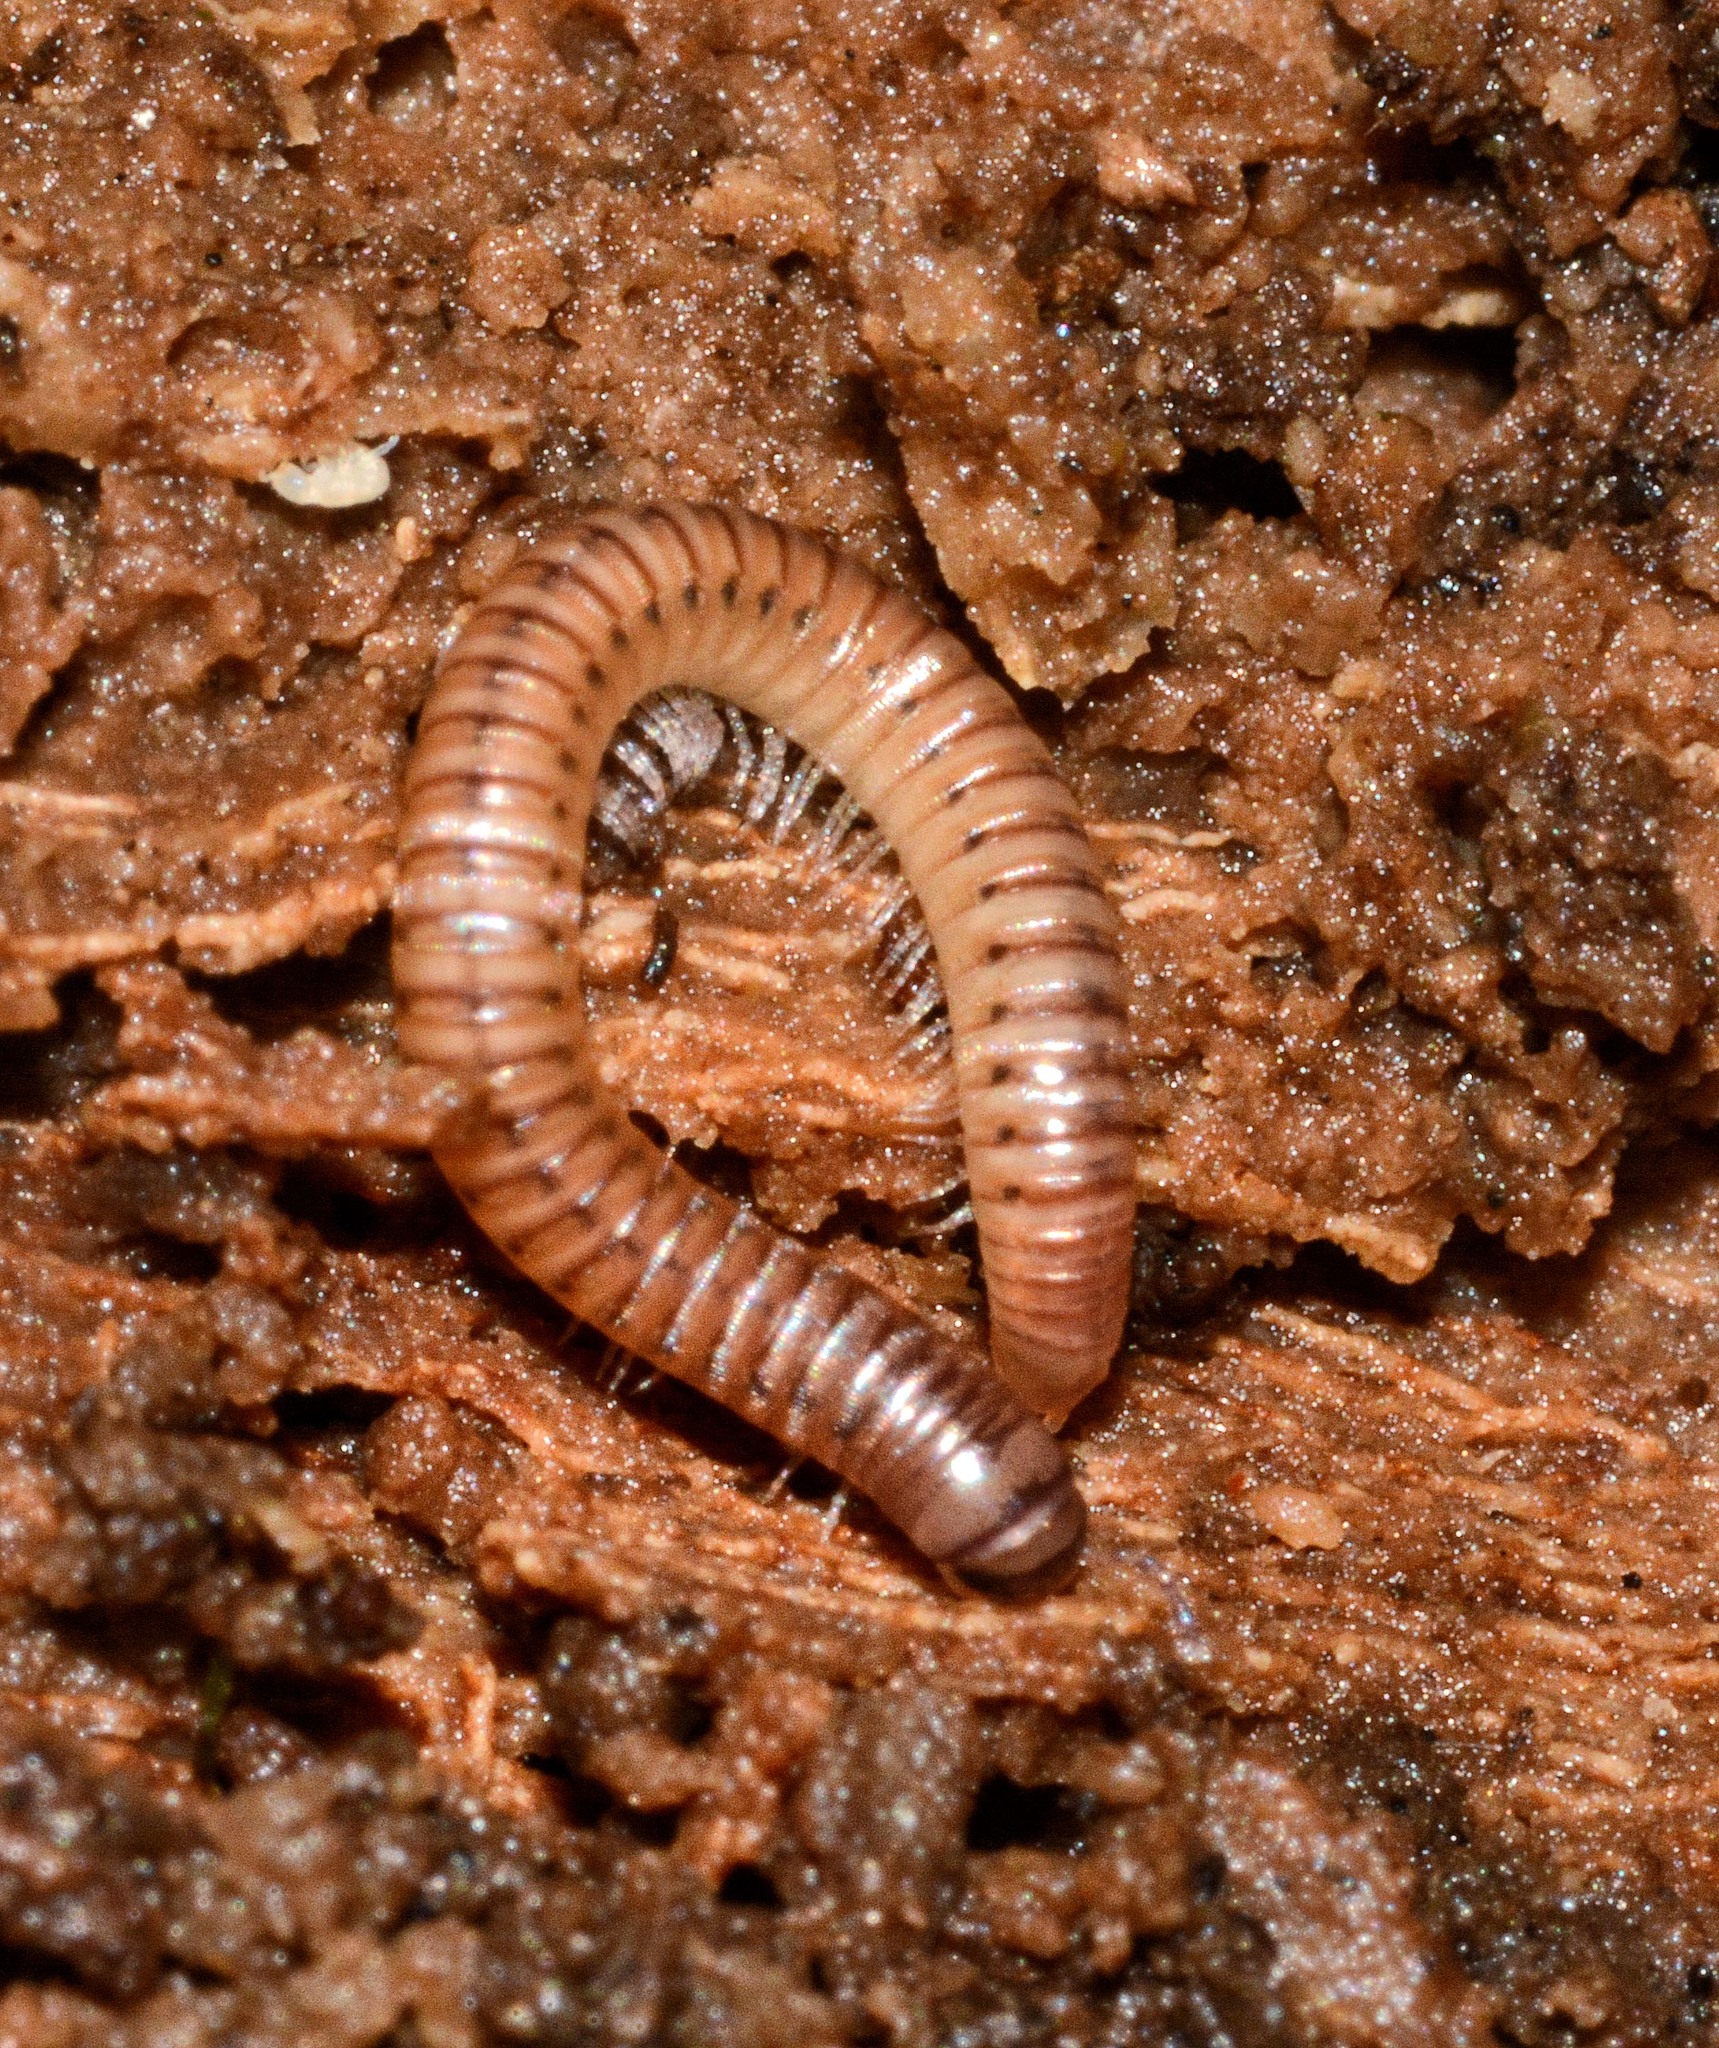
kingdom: Animalia
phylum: Arthropoda
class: Diplopoda
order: Julida
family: Julidae
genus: Cylindroiulus
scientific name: Cylindroiulus punctatus
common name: Blunt-tailed millipede
